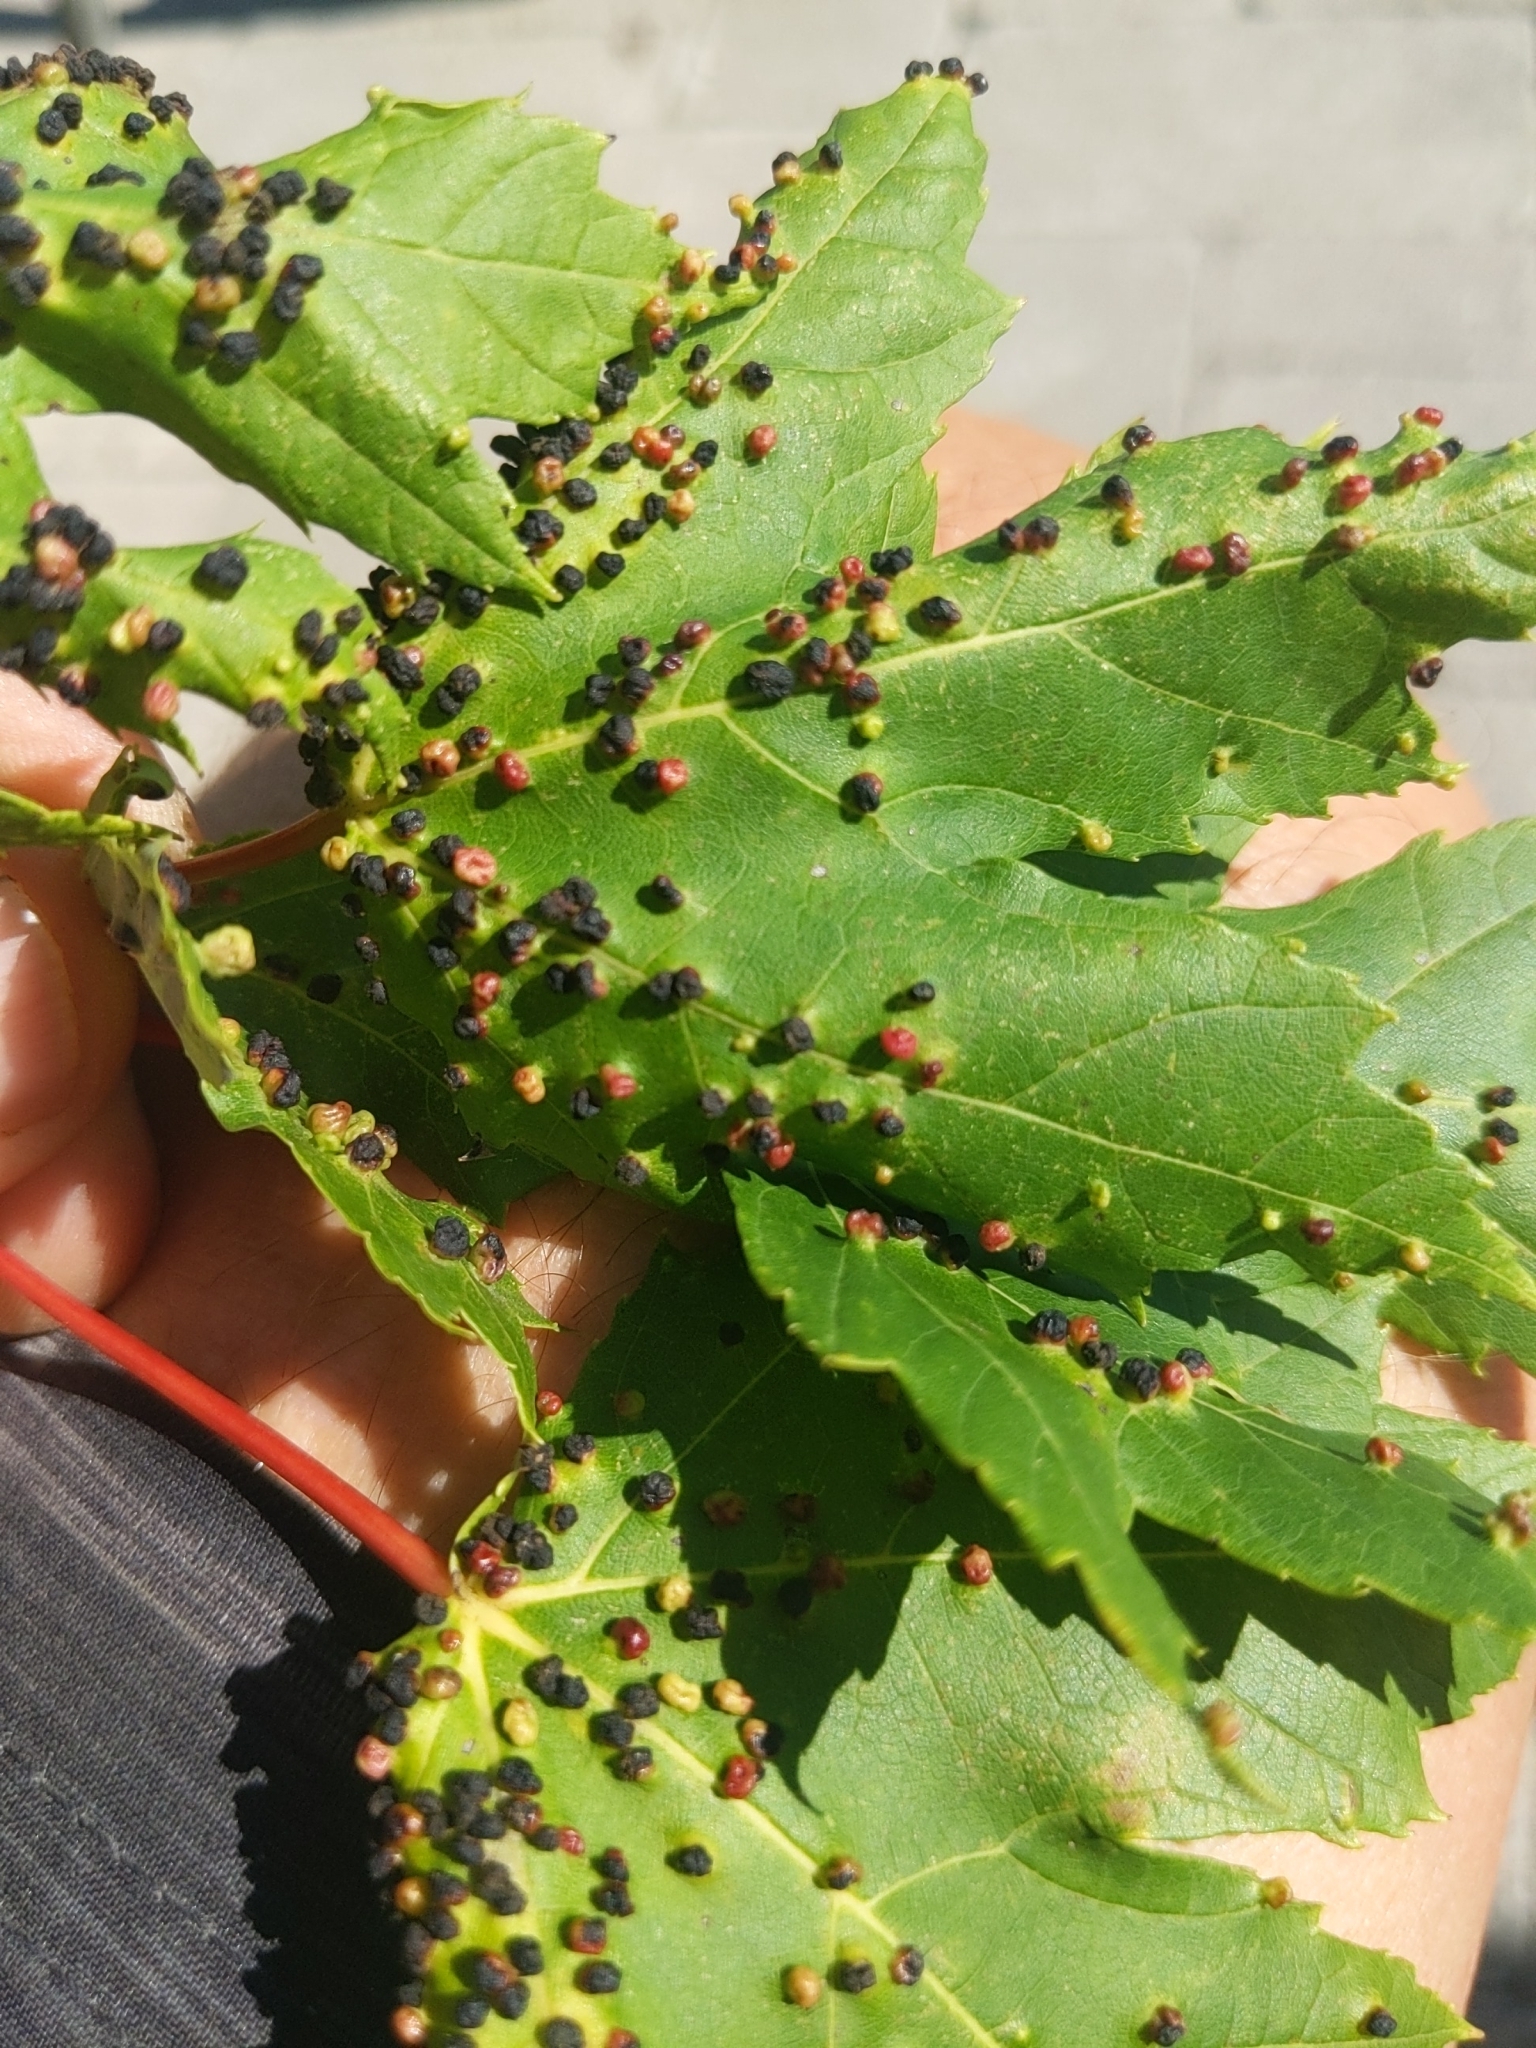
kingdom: Animalia
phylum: Arthropoda
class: Arachnida
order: Trombidiformes
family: Eriophyidae
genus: Vasates
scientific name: Vasates quadripedes
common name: Maple bladder gall mite
